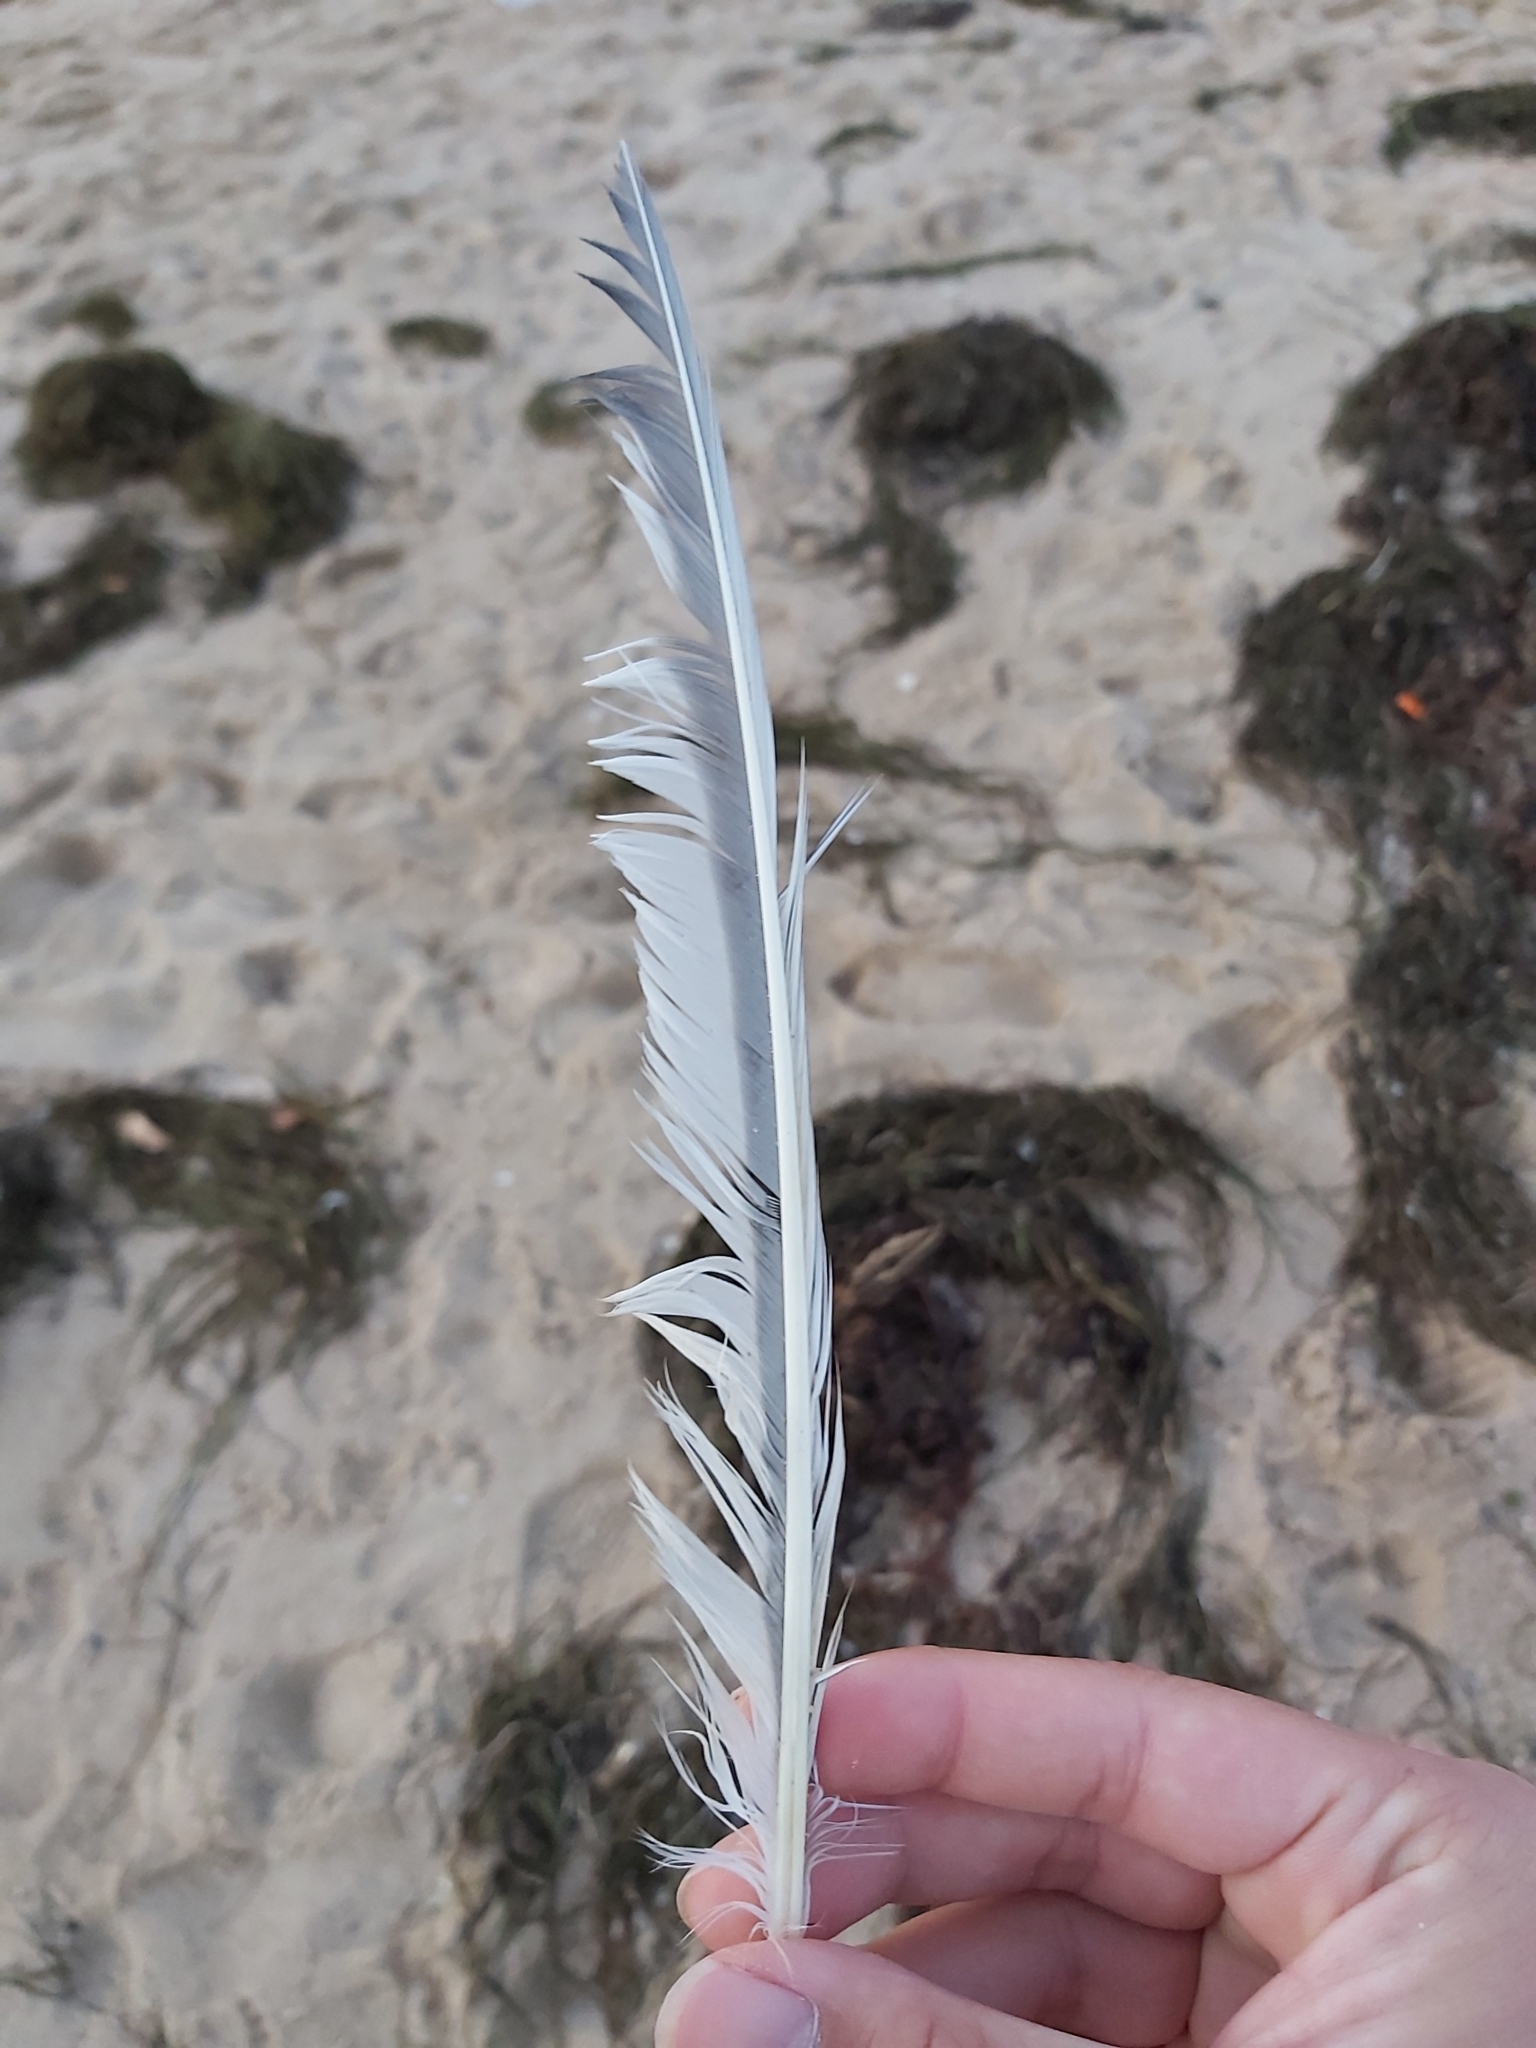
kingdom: Animalia
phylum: Chordata
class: Aves
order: Charadriiformes
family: Laridae
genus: Thalasseus
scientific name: Thalasseus bergii
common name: Greater crested tern
